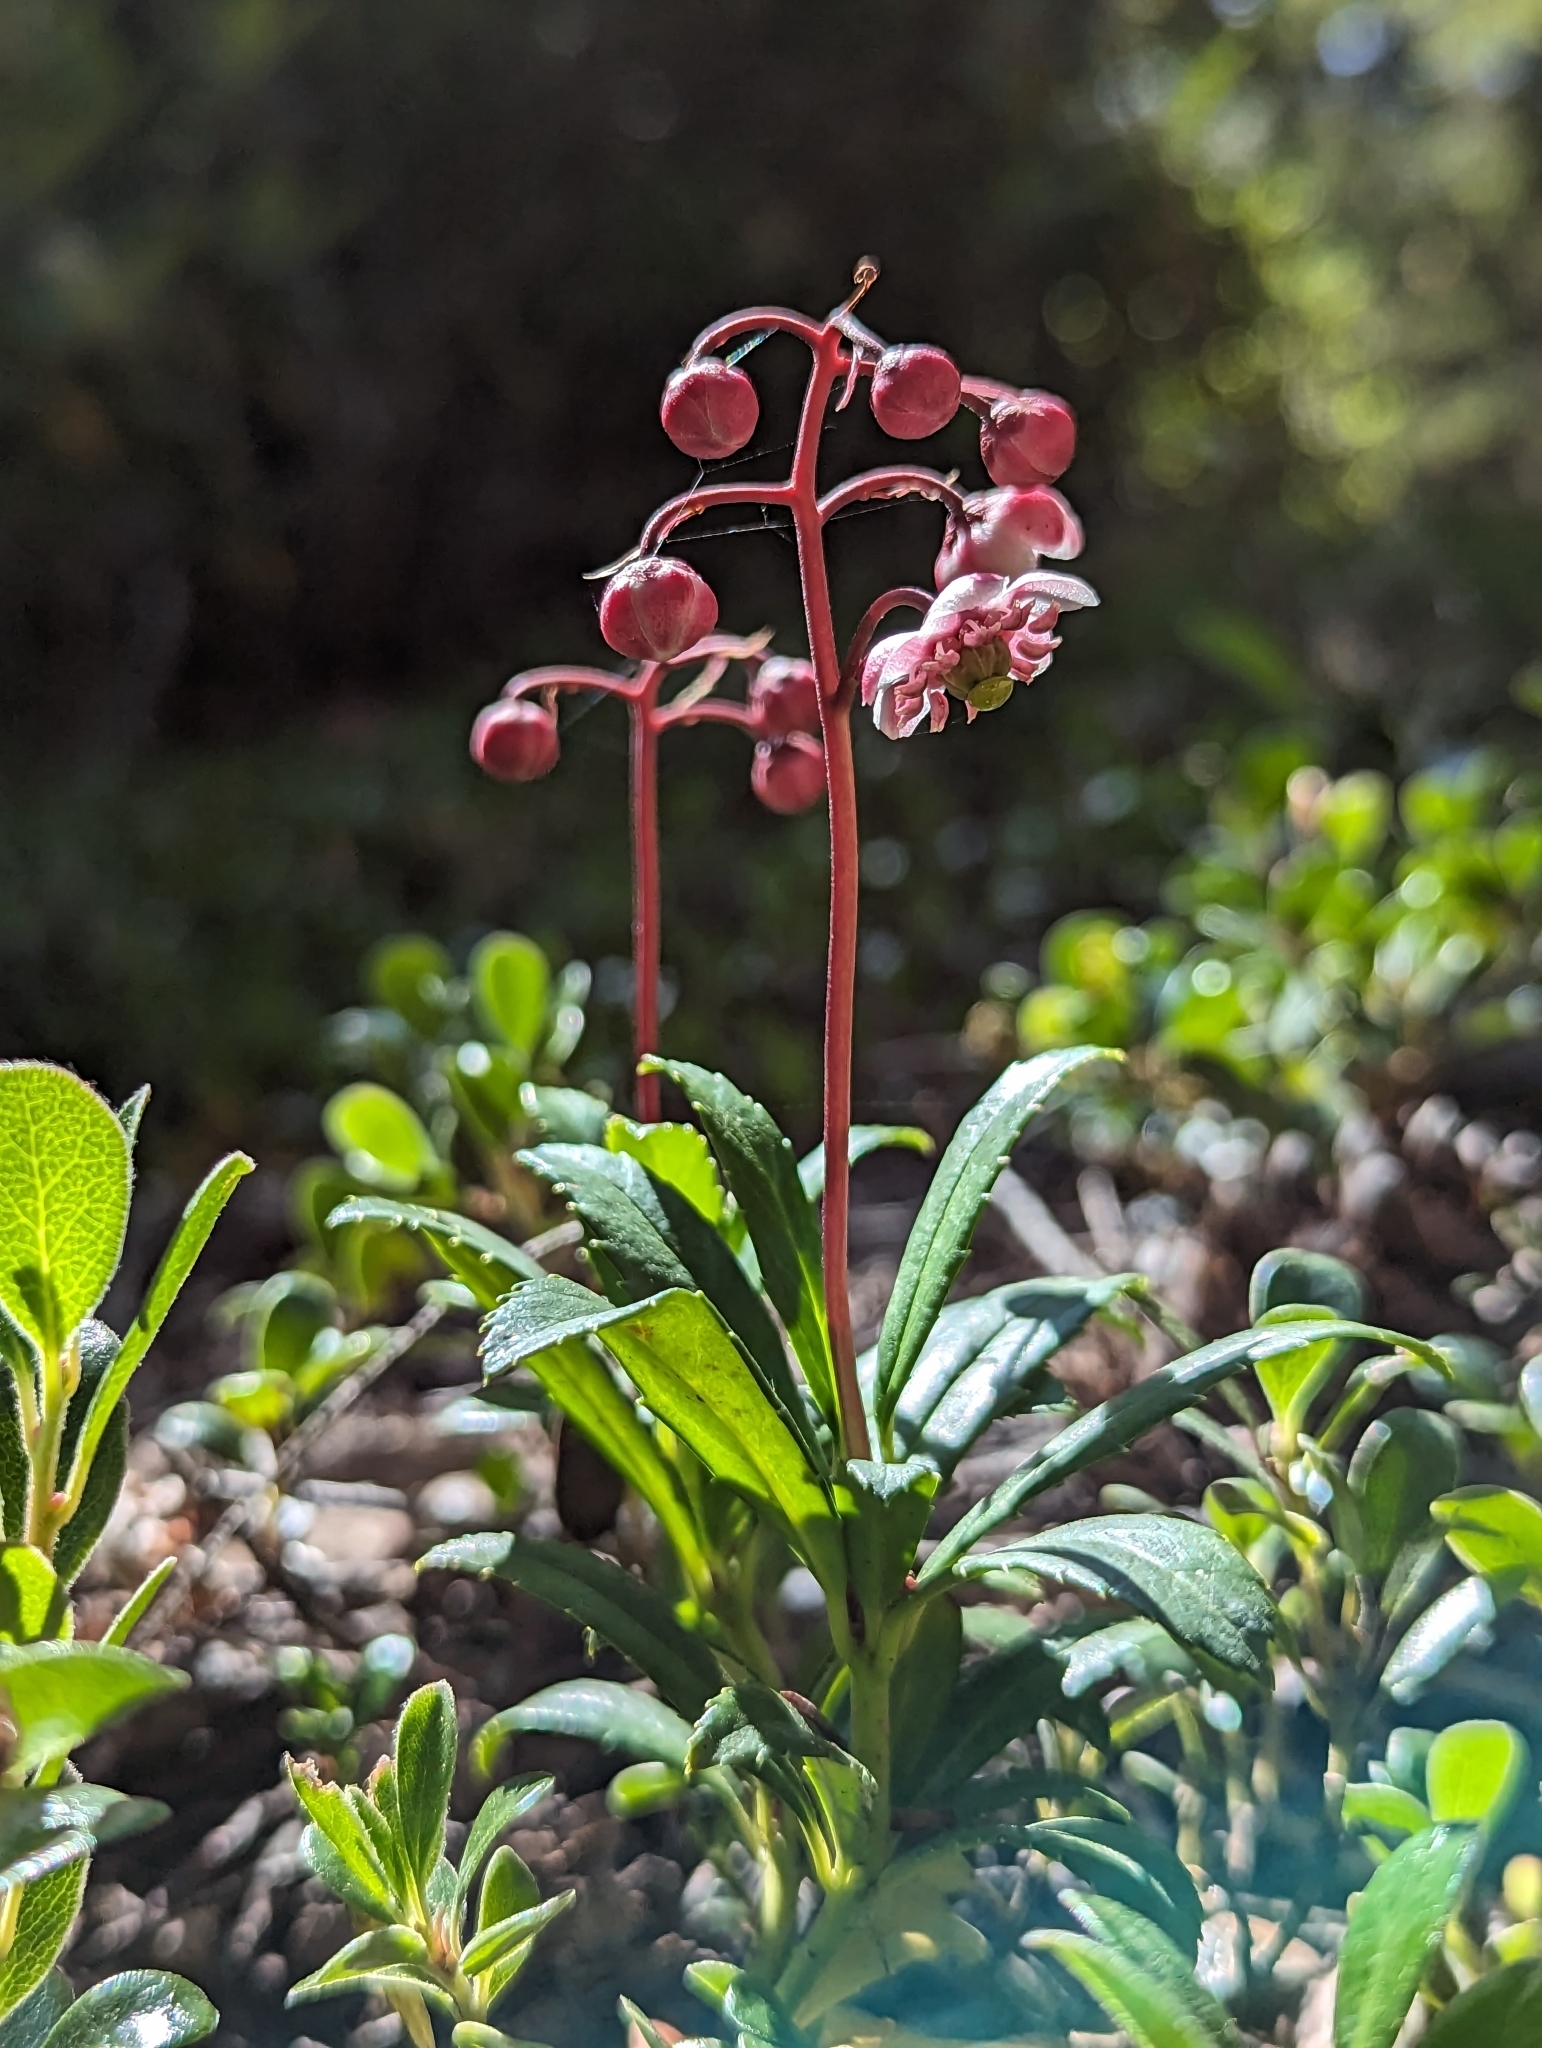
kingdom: Plantae
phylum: Tracheophyta
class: Magnoliopsida
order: Ericales
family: Ericaceae
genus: Chimaphila
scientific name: Chimaphila umbellata
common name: Pipsissewa
